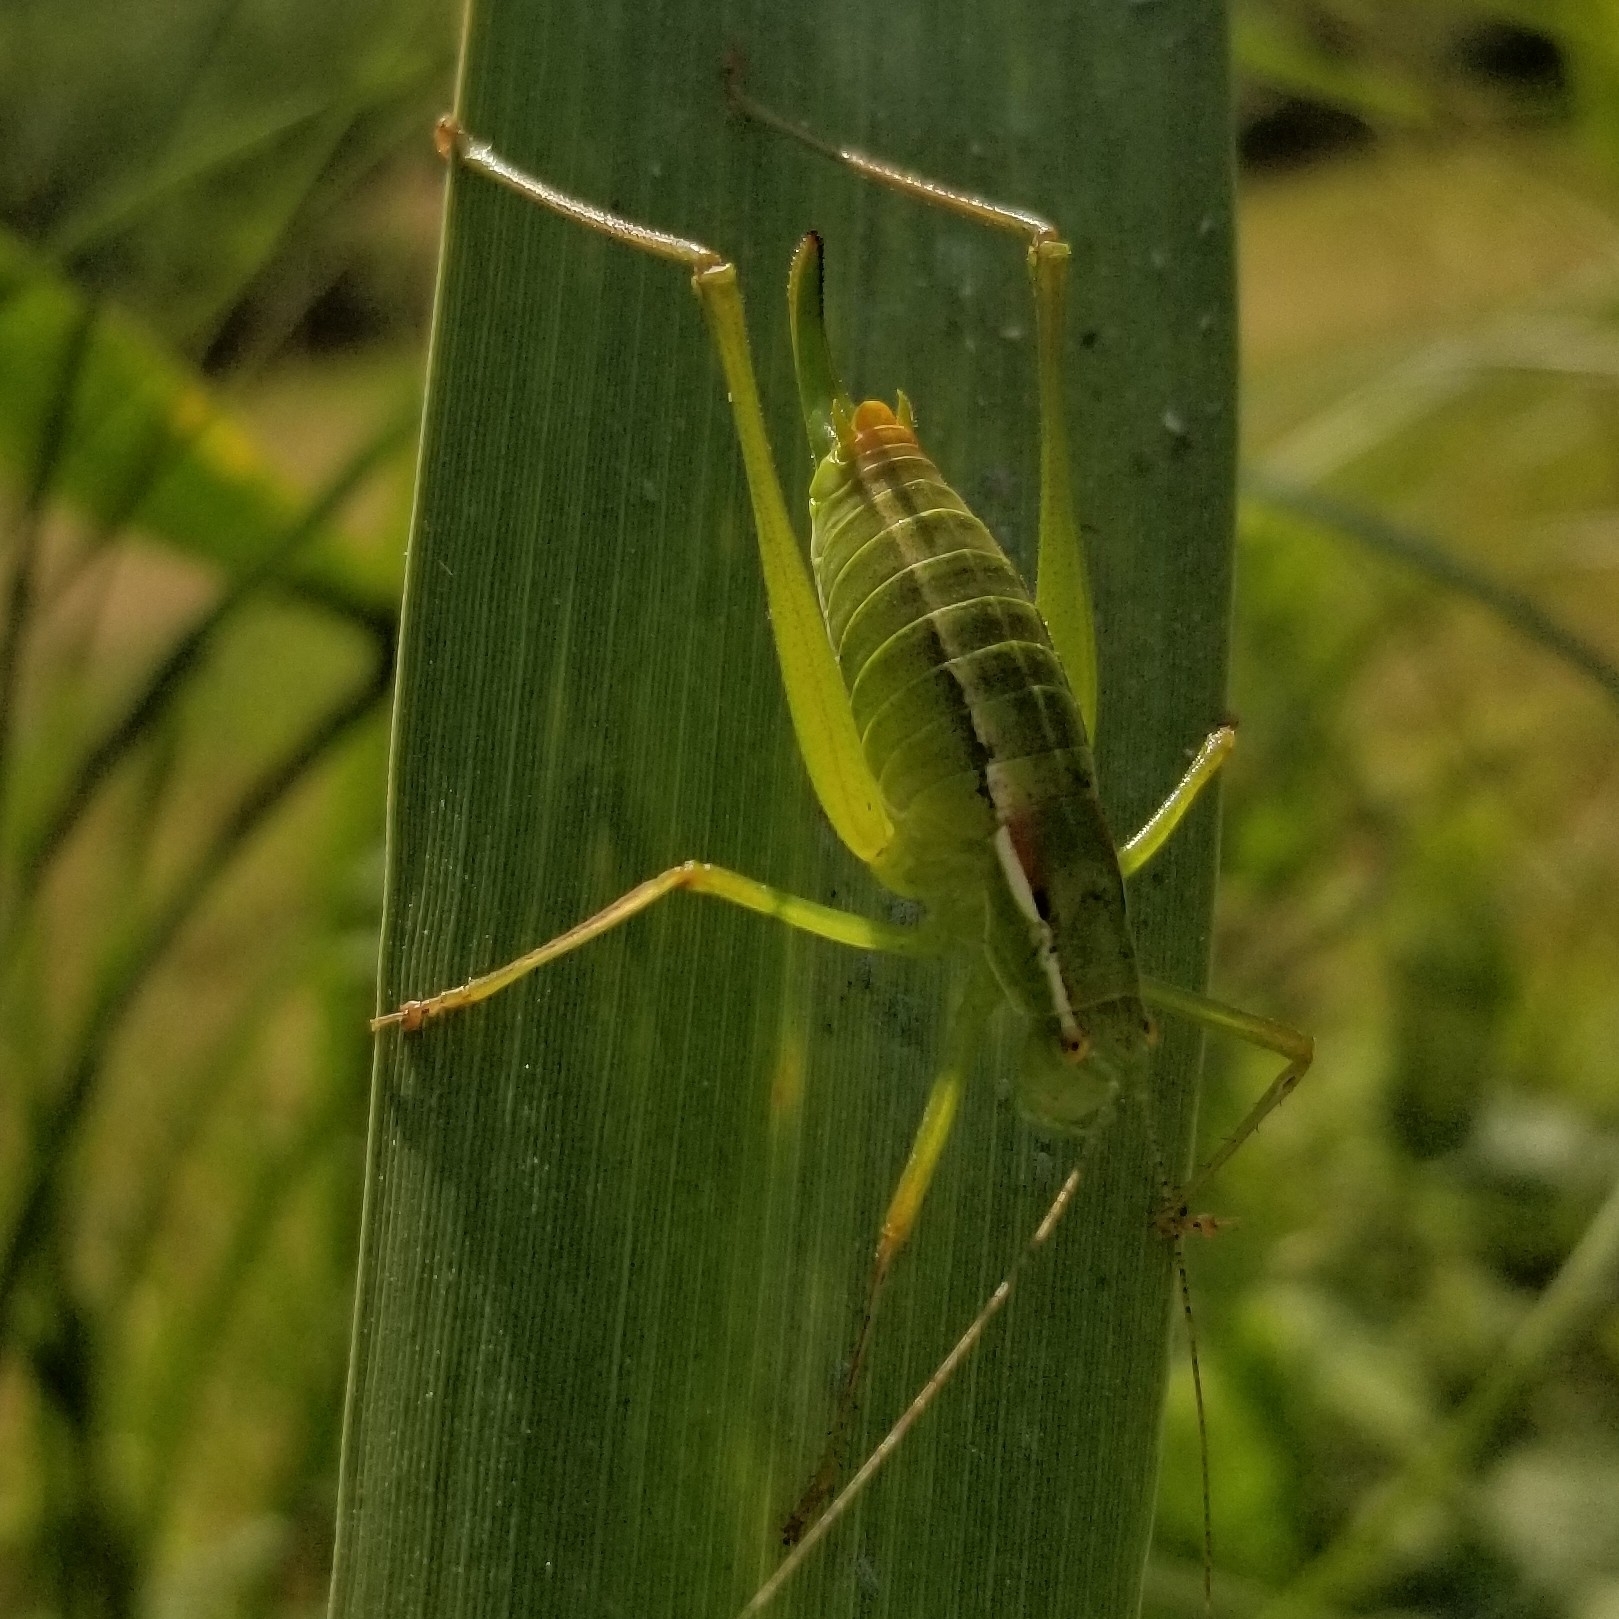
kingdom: Animalia
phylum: Arthropoda
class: Insecta
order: Orthoptera
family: Tettigoniidae
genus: Poecilimon
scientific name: Poecilimon jonicus
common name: Ionian bright bush-cricket
